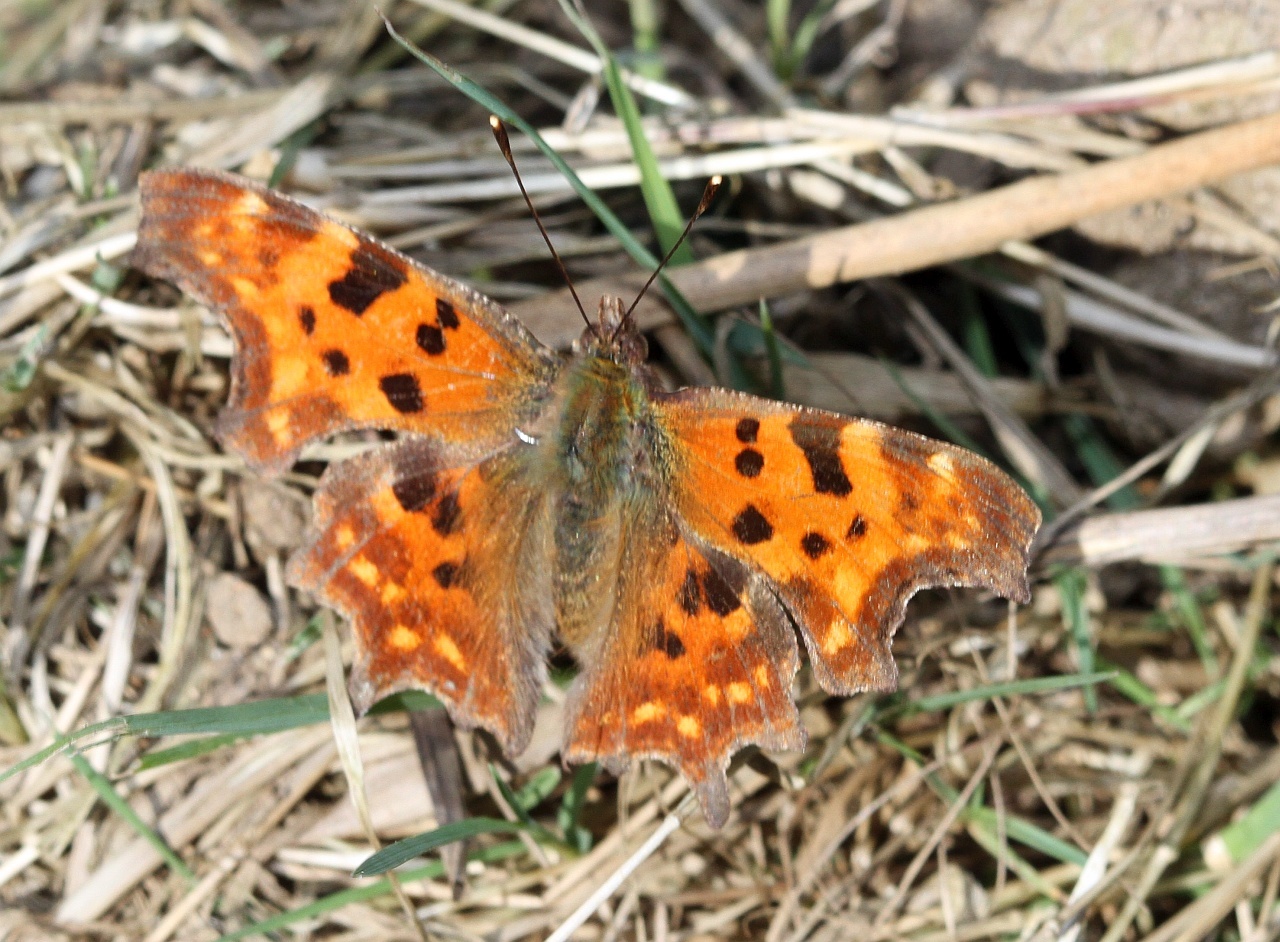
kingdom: Animalia
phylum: Arthropoda
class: Insecta
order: Lepidoptera
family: Nymphalidae
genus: Polygonia
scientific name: Polygonia c-album
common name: Comma
